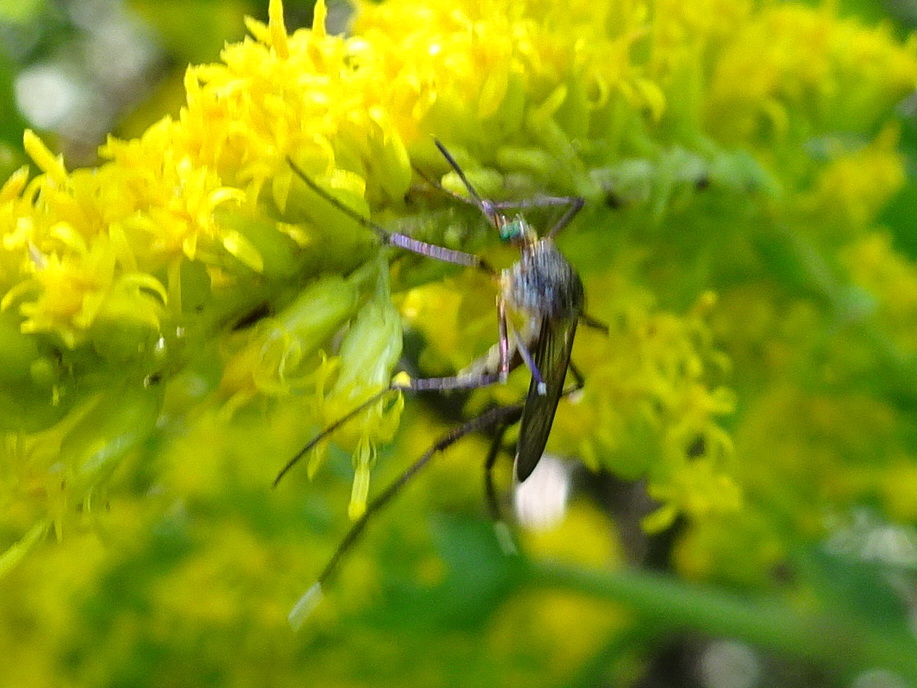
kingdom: Animalia
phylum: Arthropoda
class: Insecta
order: Diptera
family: Culicidae
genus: Psorophora
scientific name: Psorophora ferox
